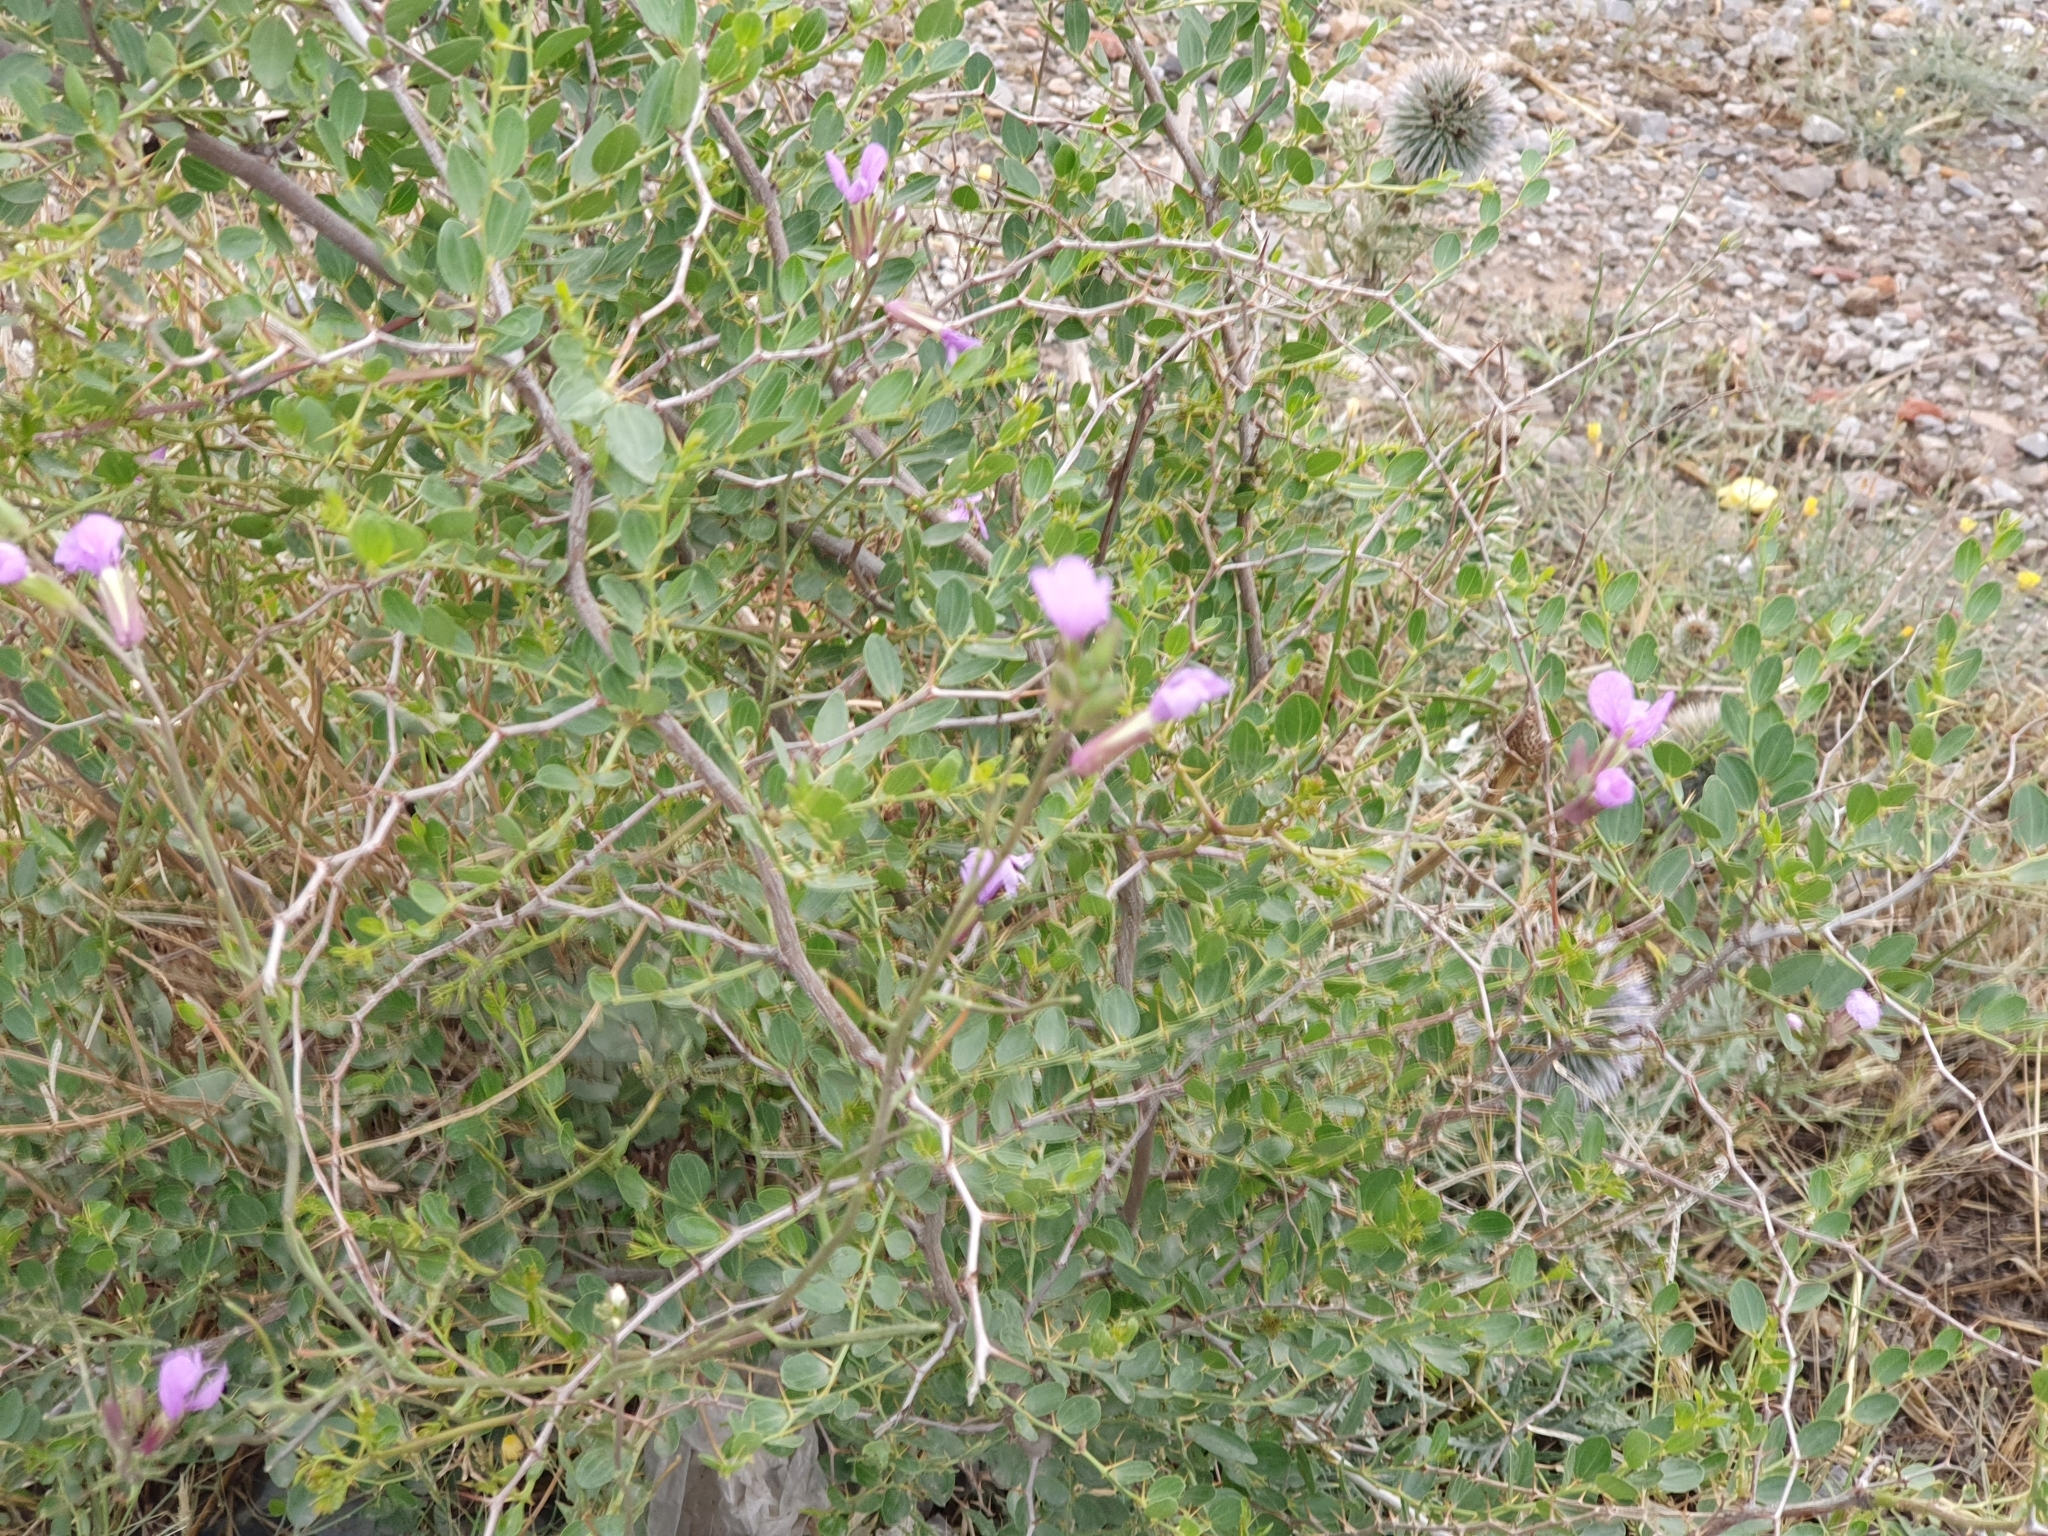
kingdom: Plantae
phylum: Tracheophyta
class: Magnoliopsida
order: Rosales
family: Rhamnaceae
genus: Ziziphus
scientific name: Ziziphus lotus
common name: Lotus
